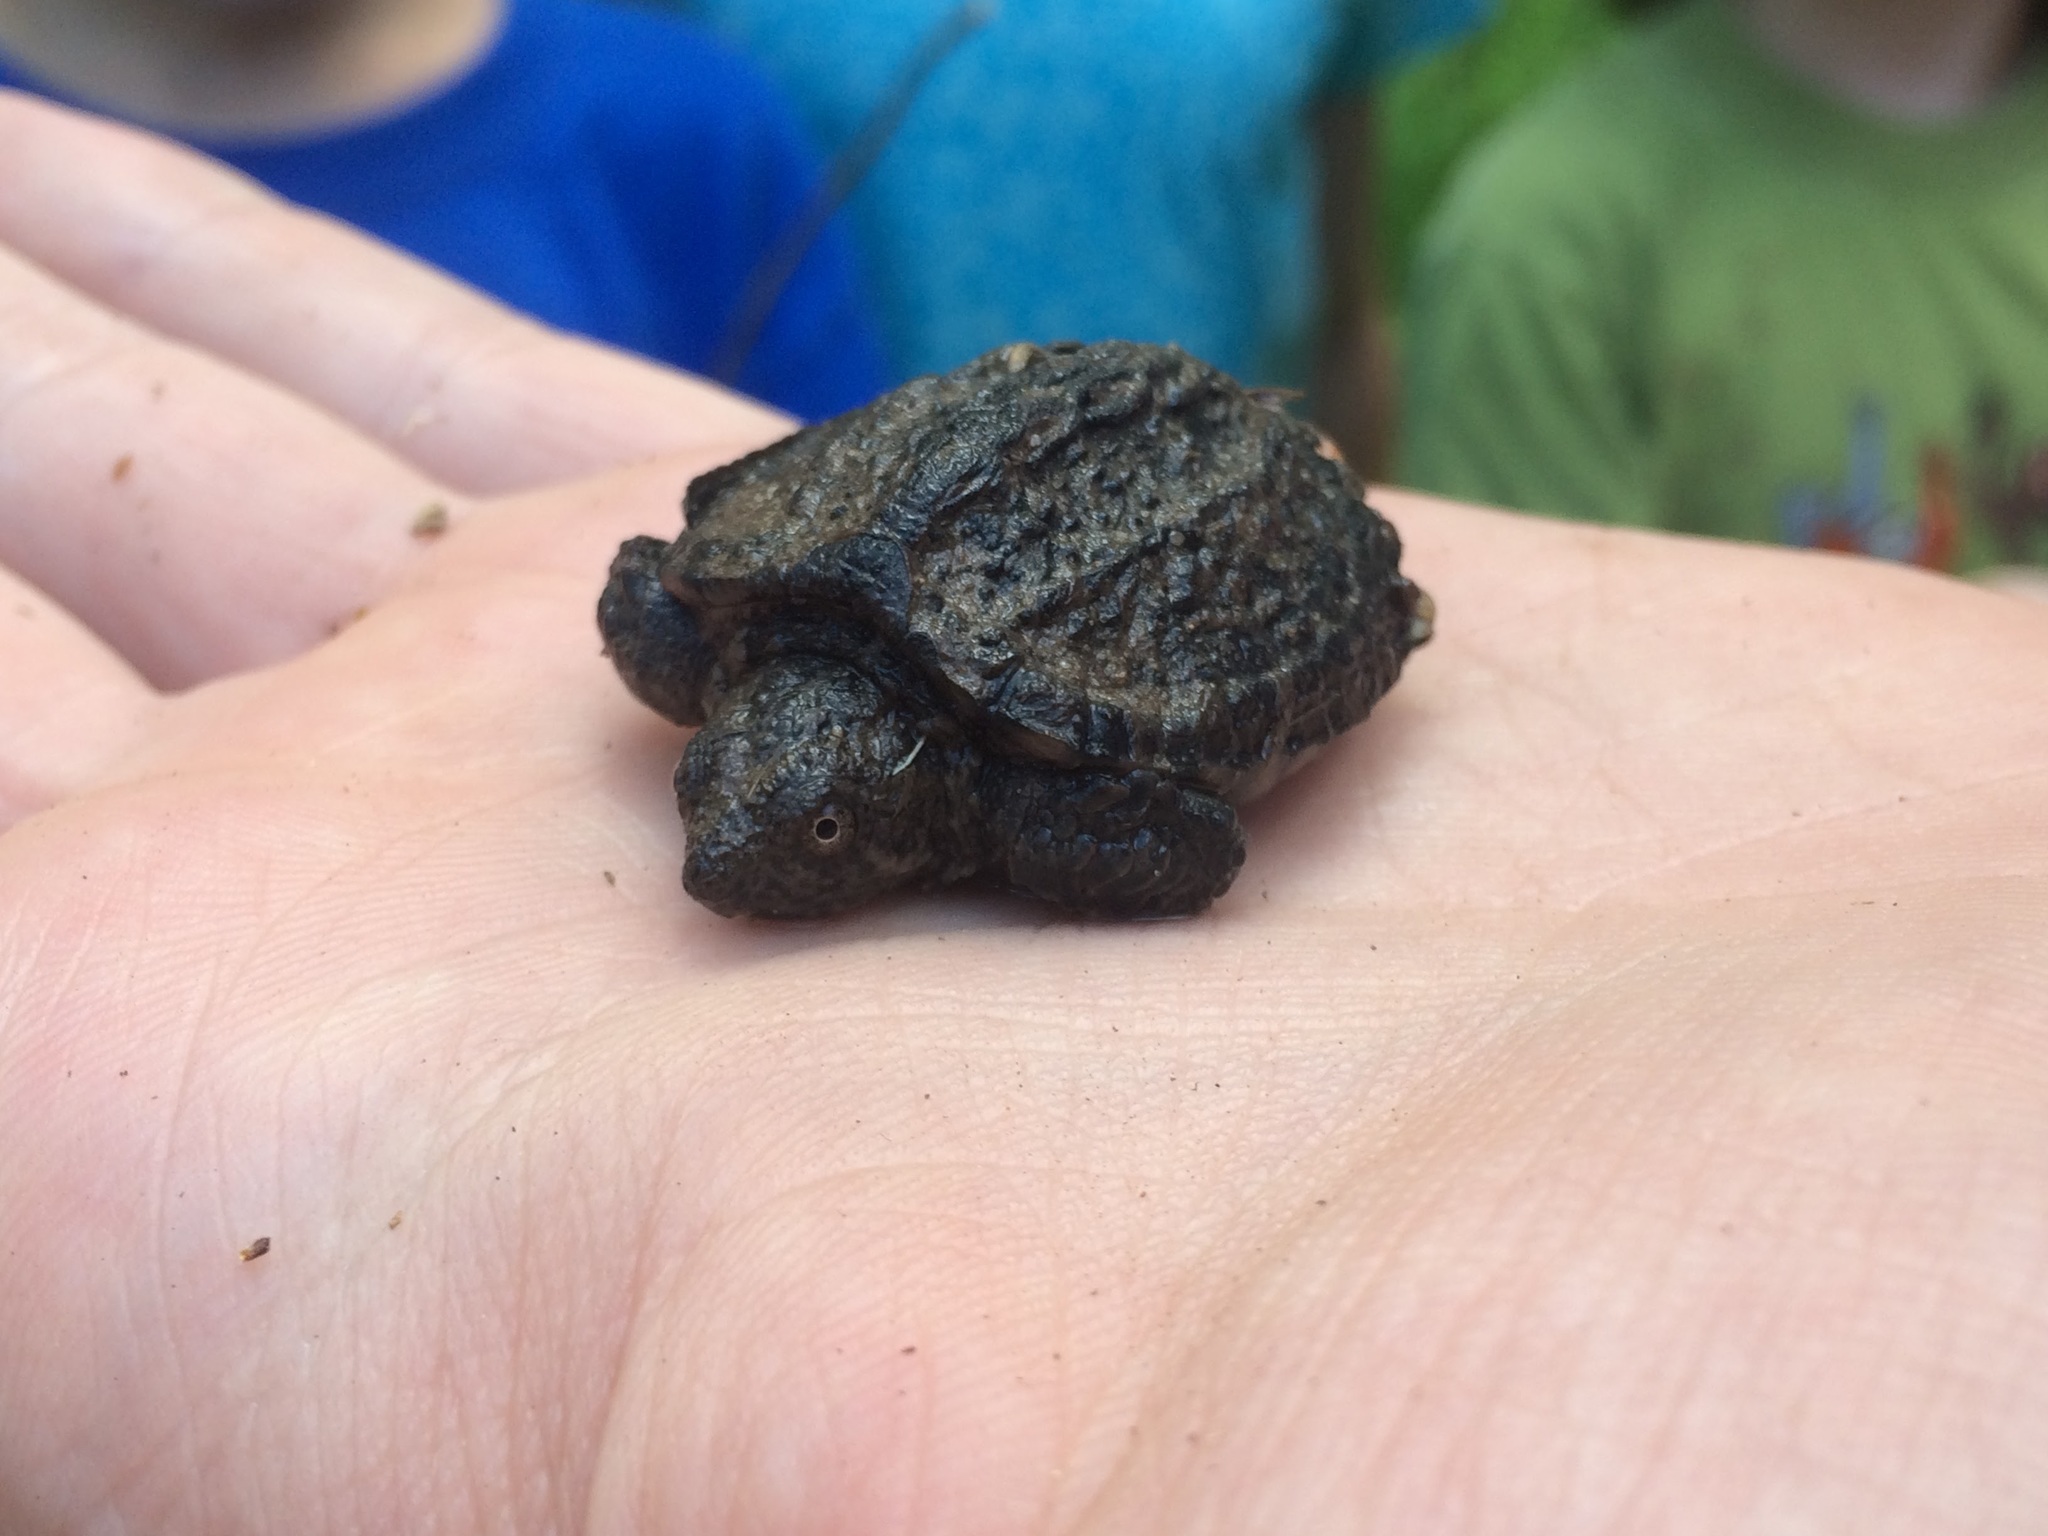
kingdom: Animalia
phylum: Chordata
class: Testudines
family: Chelydridae
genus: Chelydra
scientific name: Chelydra serpentina
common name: Common snapping turtle
